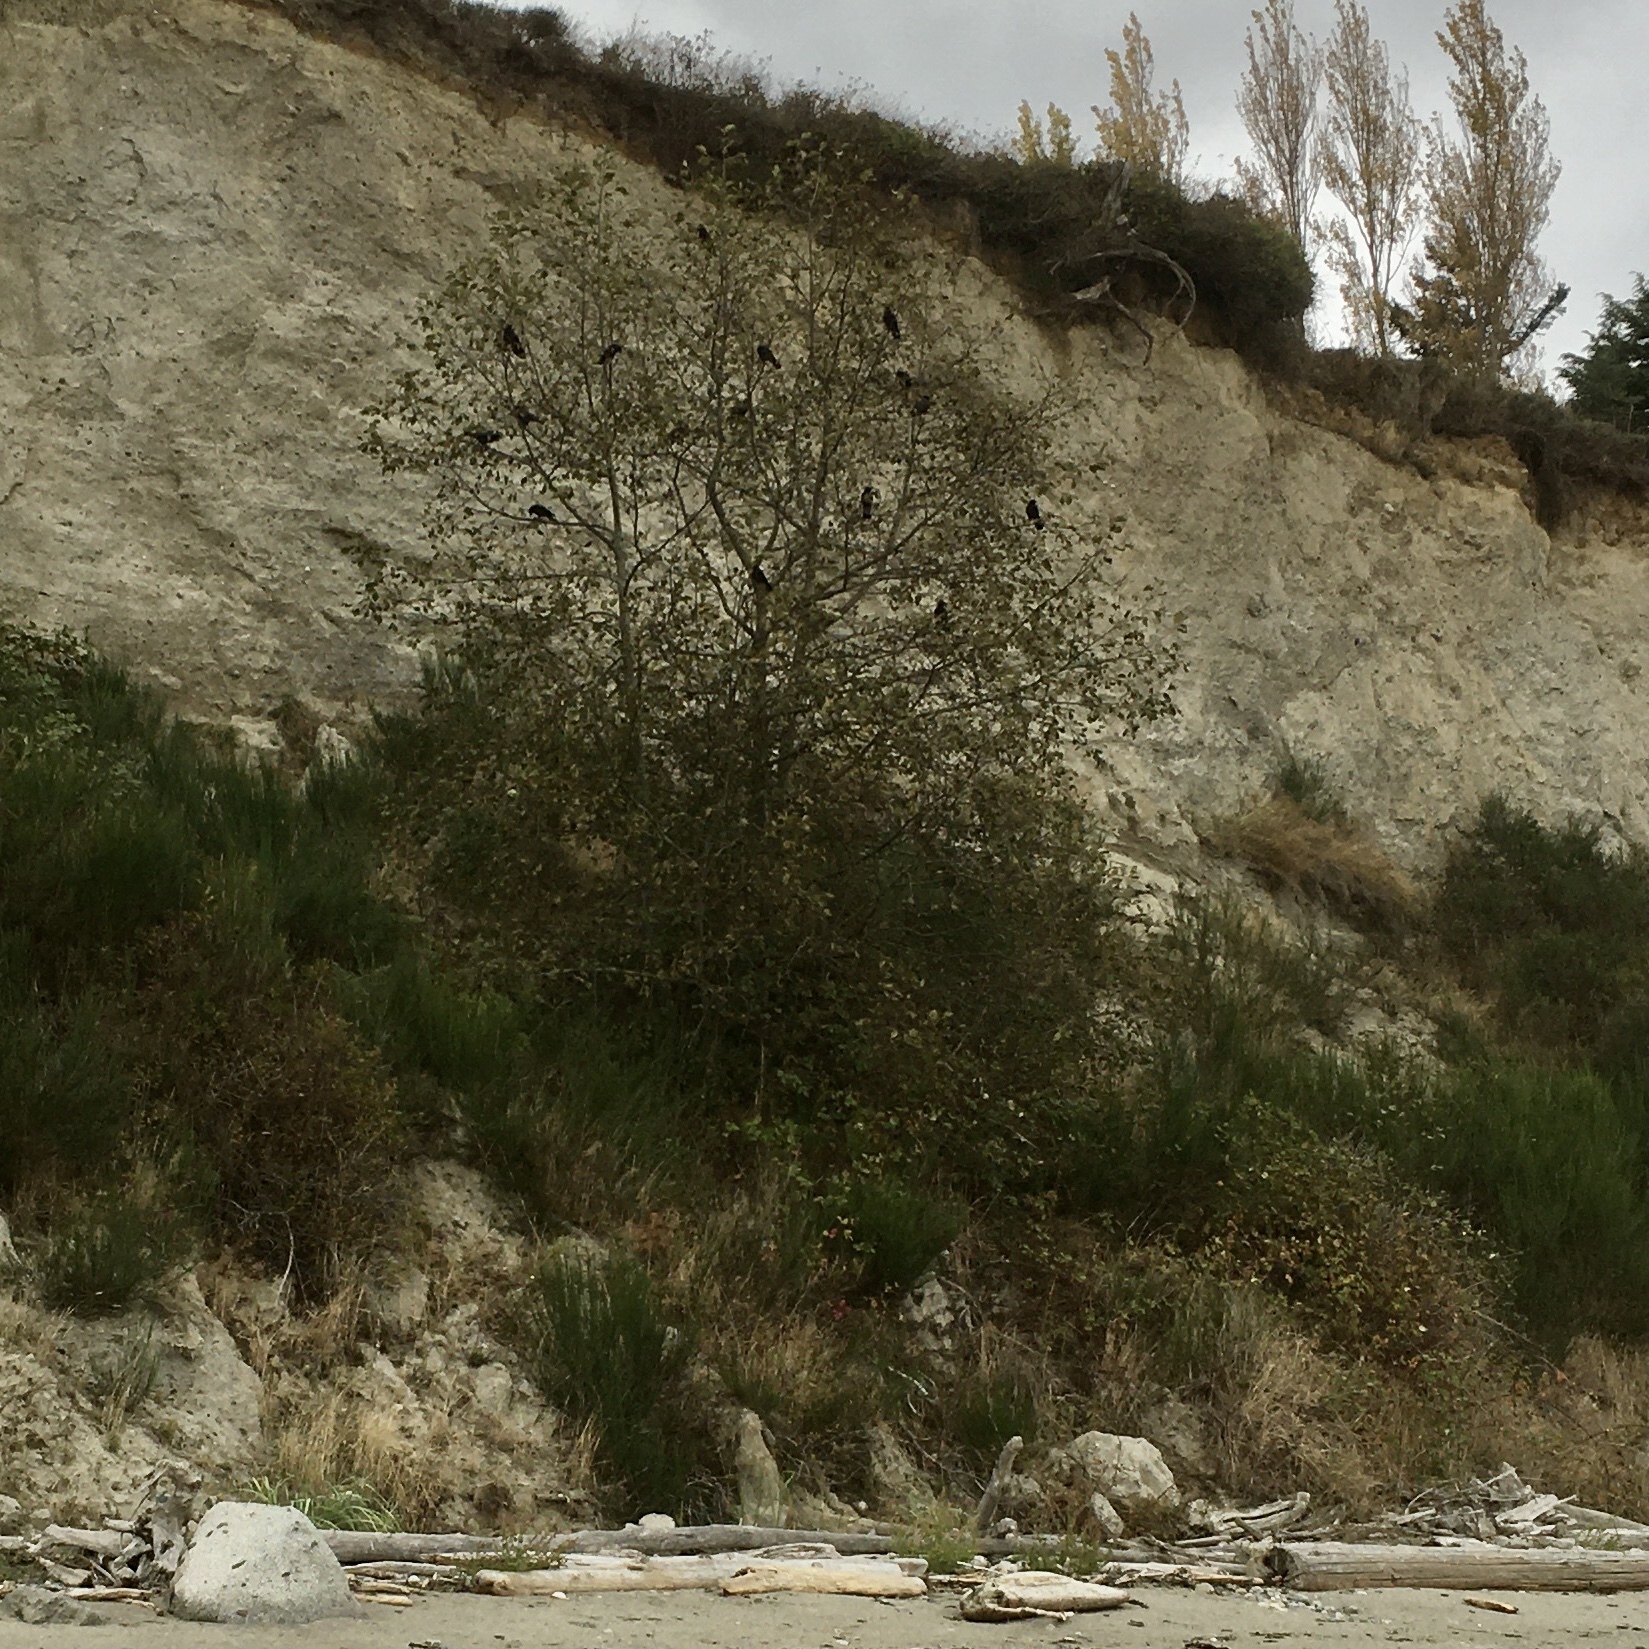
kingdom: Animalia
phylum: Chordata
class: Aves
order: Passeriformes
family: Corvidae
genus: Corvus
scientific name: Corvus brachyrhynchos
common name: American crow
